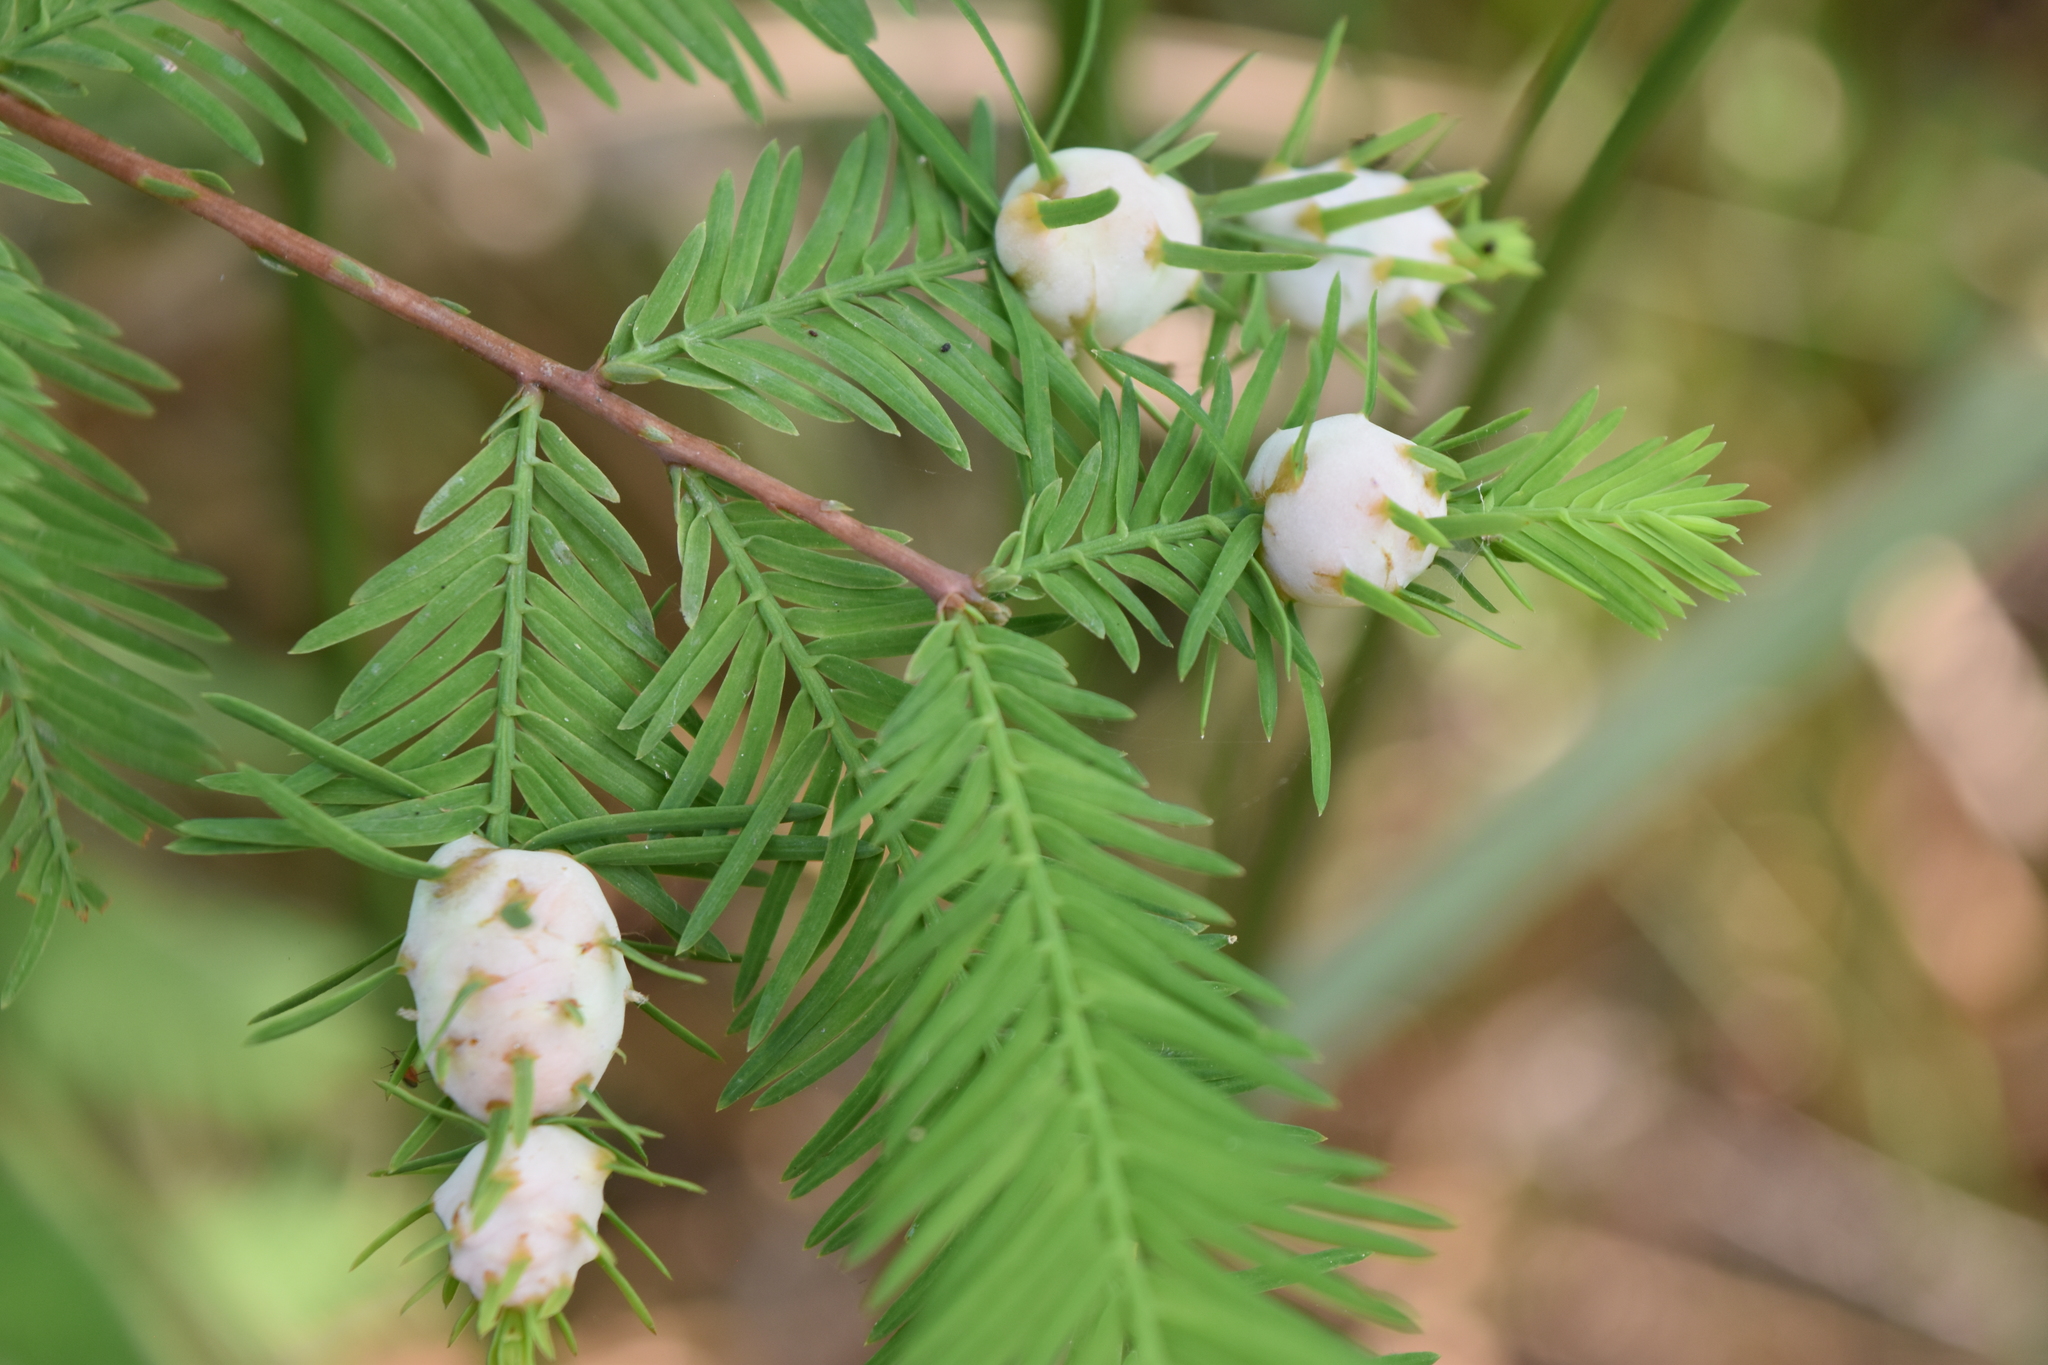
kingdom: Animalia
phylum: Arthropoda
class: Insecta
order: Diptera
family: Cecidomyiidae
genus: Taxodiomyia
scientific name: Taxodiomyia cupressiananassa
